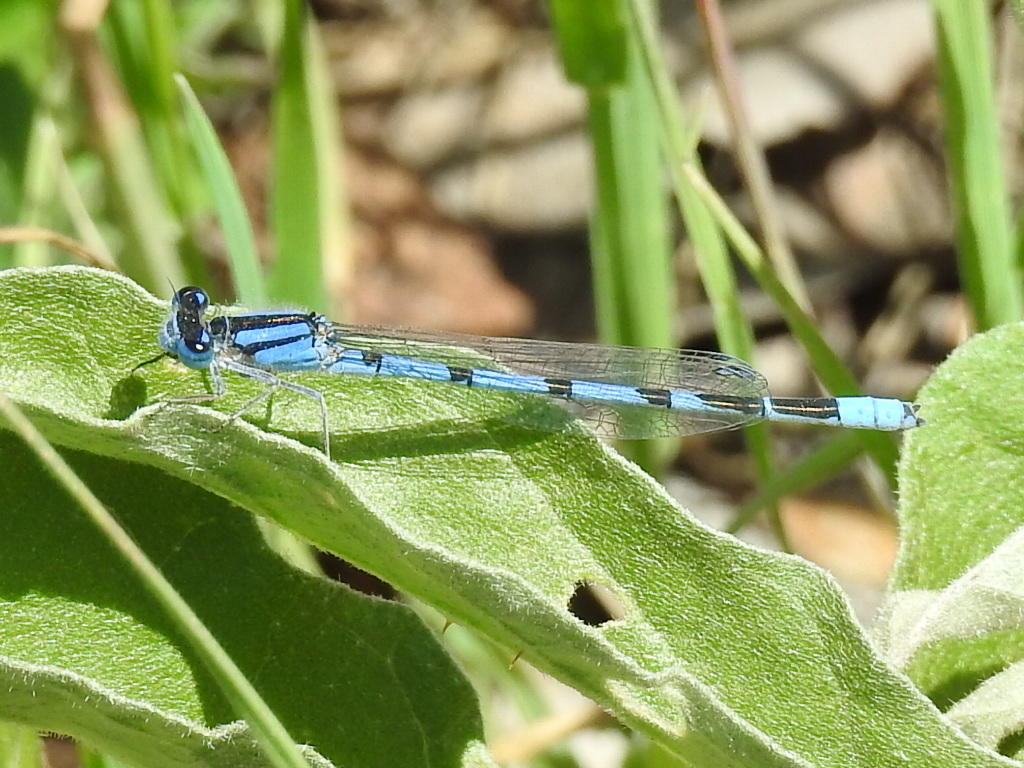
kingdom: Animalia
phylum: Arthropoda
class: Insecta
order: Odonata
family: Coenagrionidae
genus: Enallagma
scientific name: Enallagma civile
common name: Damselfly
